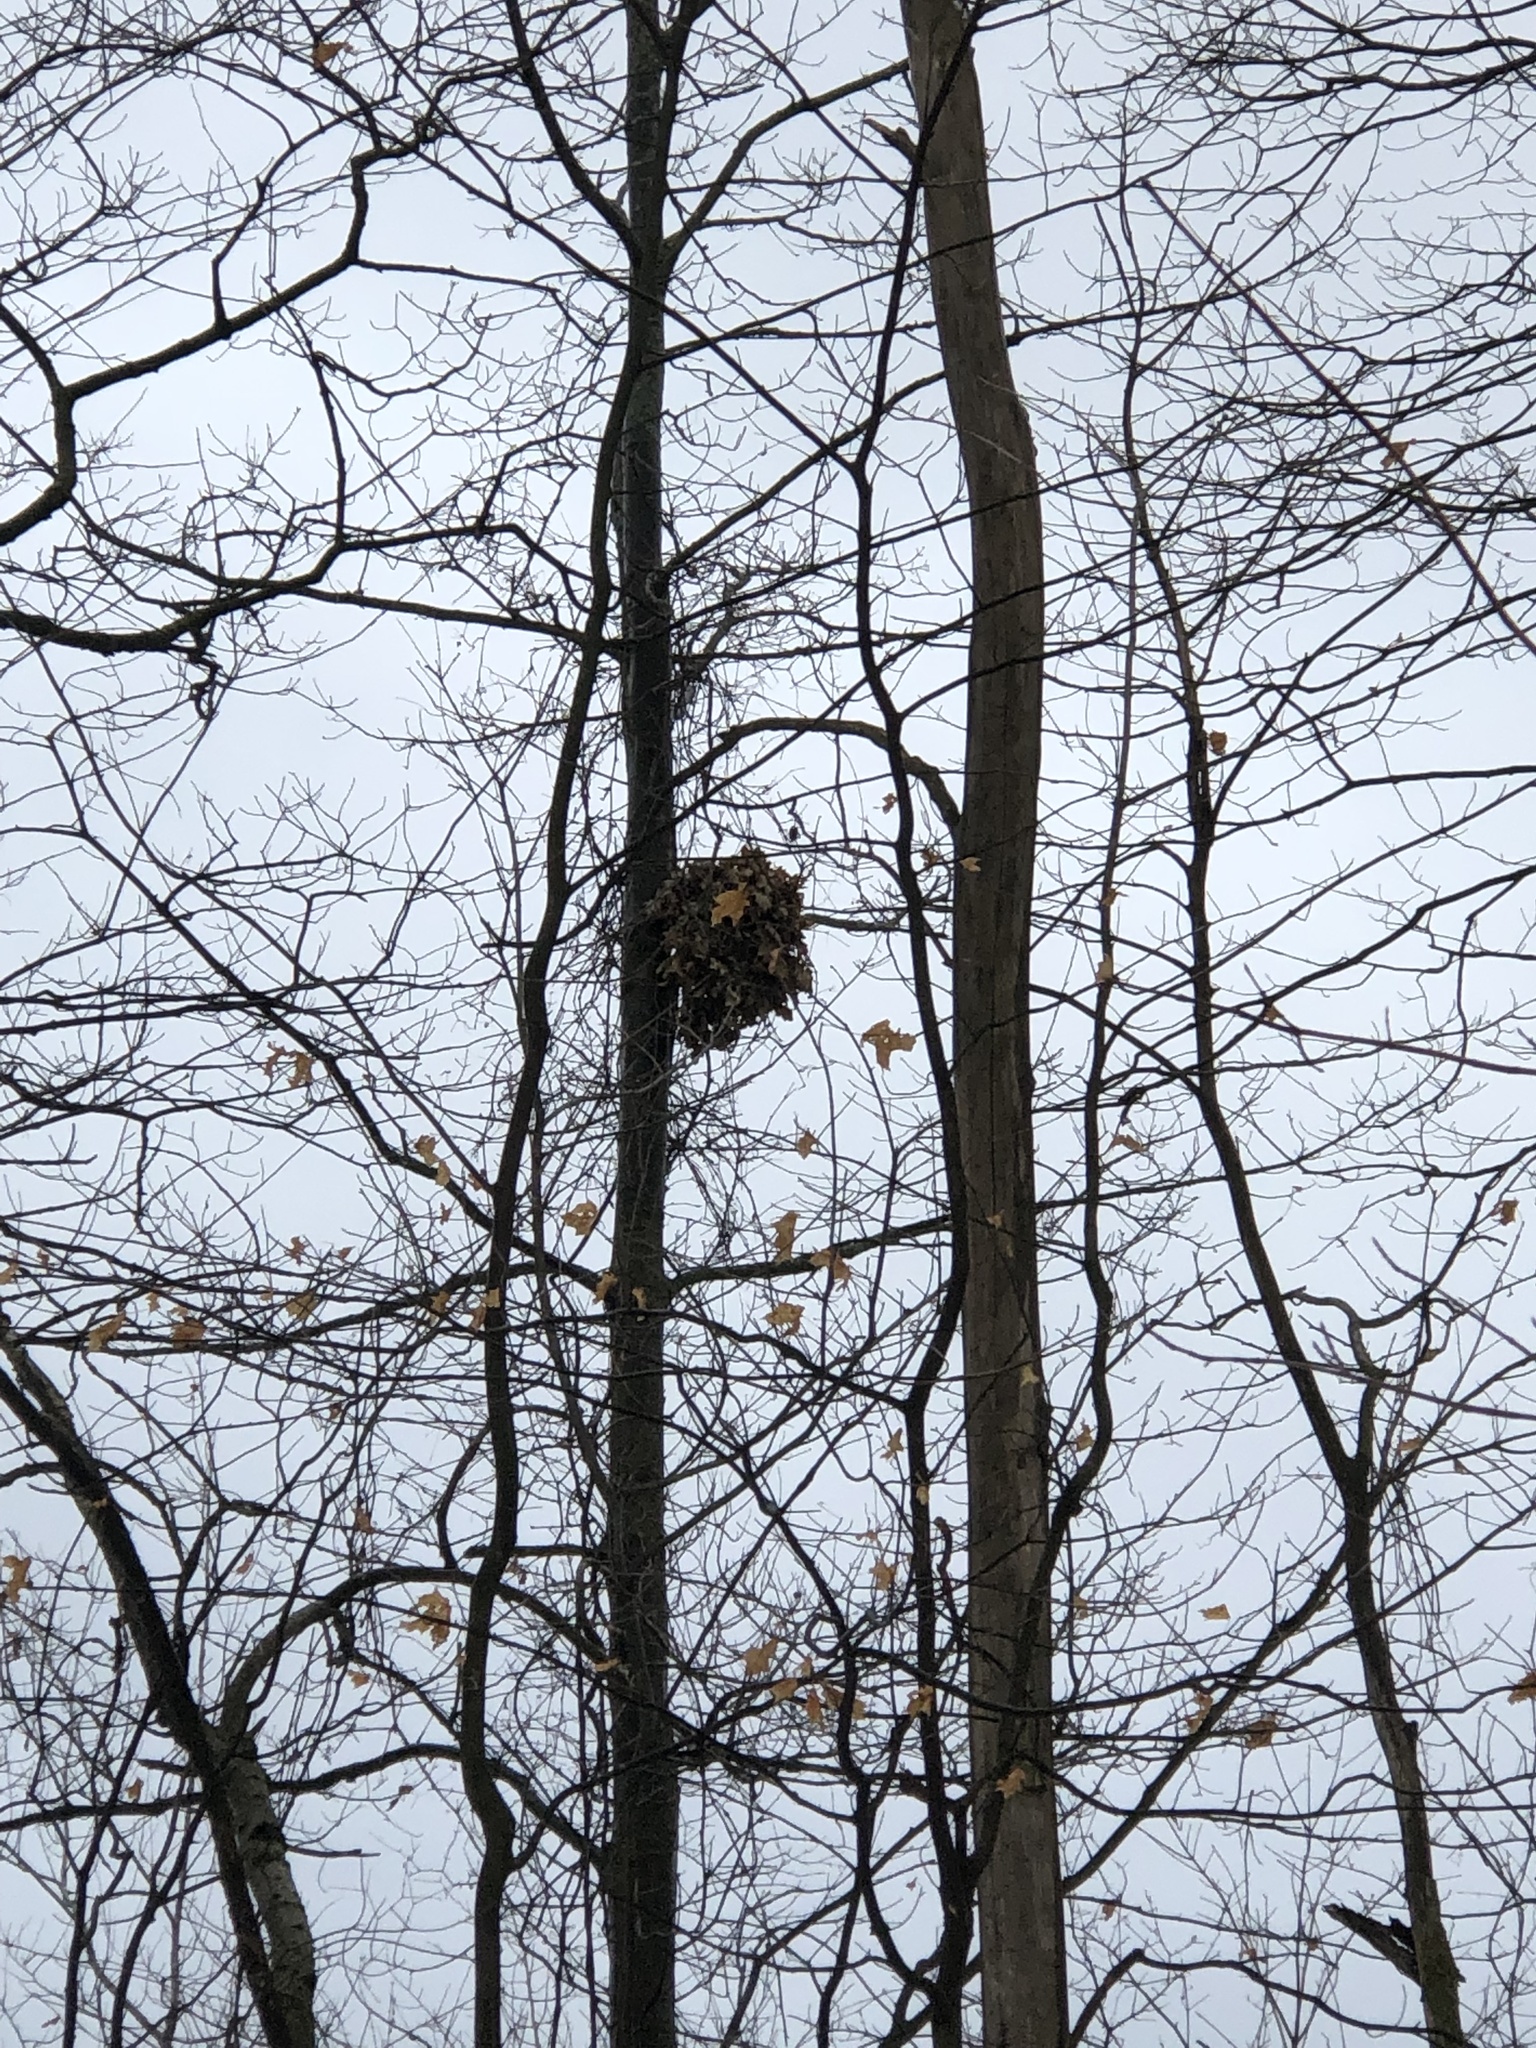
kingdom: Animalia
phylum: Chordata
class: Mammalia
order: Rodentia
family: Sciuridae
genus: Sciurus
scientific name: Sciurus carolinensis
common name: Eastern gray squirrel
